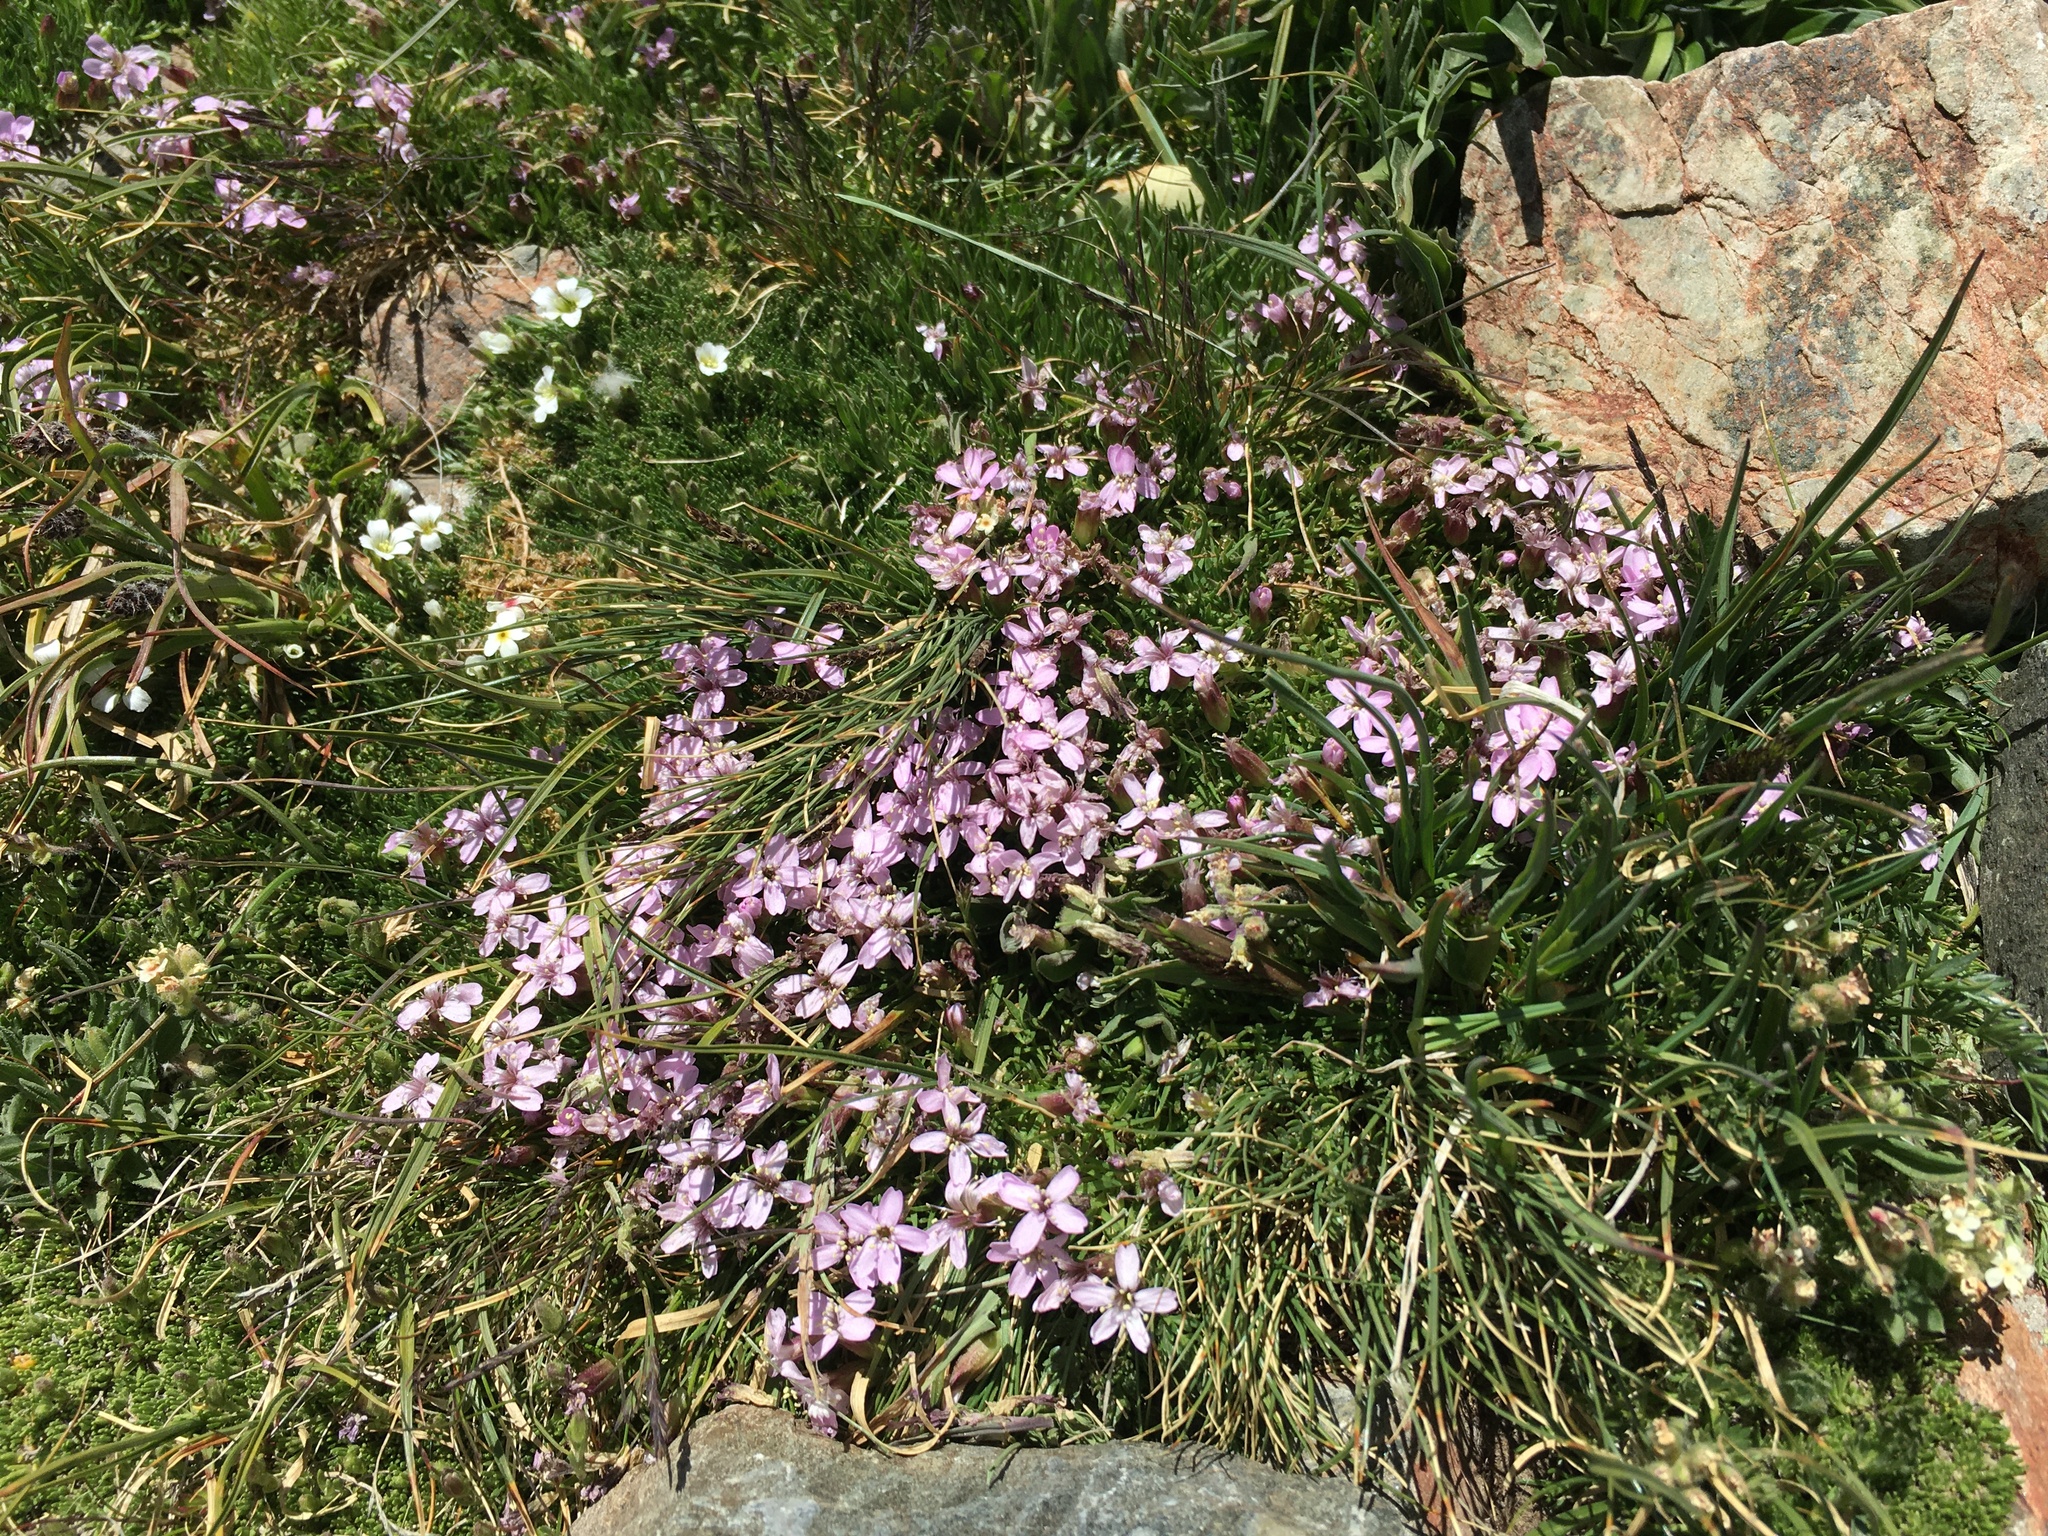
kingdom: Plantae
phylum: Tracheophyta
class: Magnoliopsida
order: Caryophyllales
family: Caryophyllaceae
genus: Silene
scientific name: Silene acaulis
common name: Moss campion
